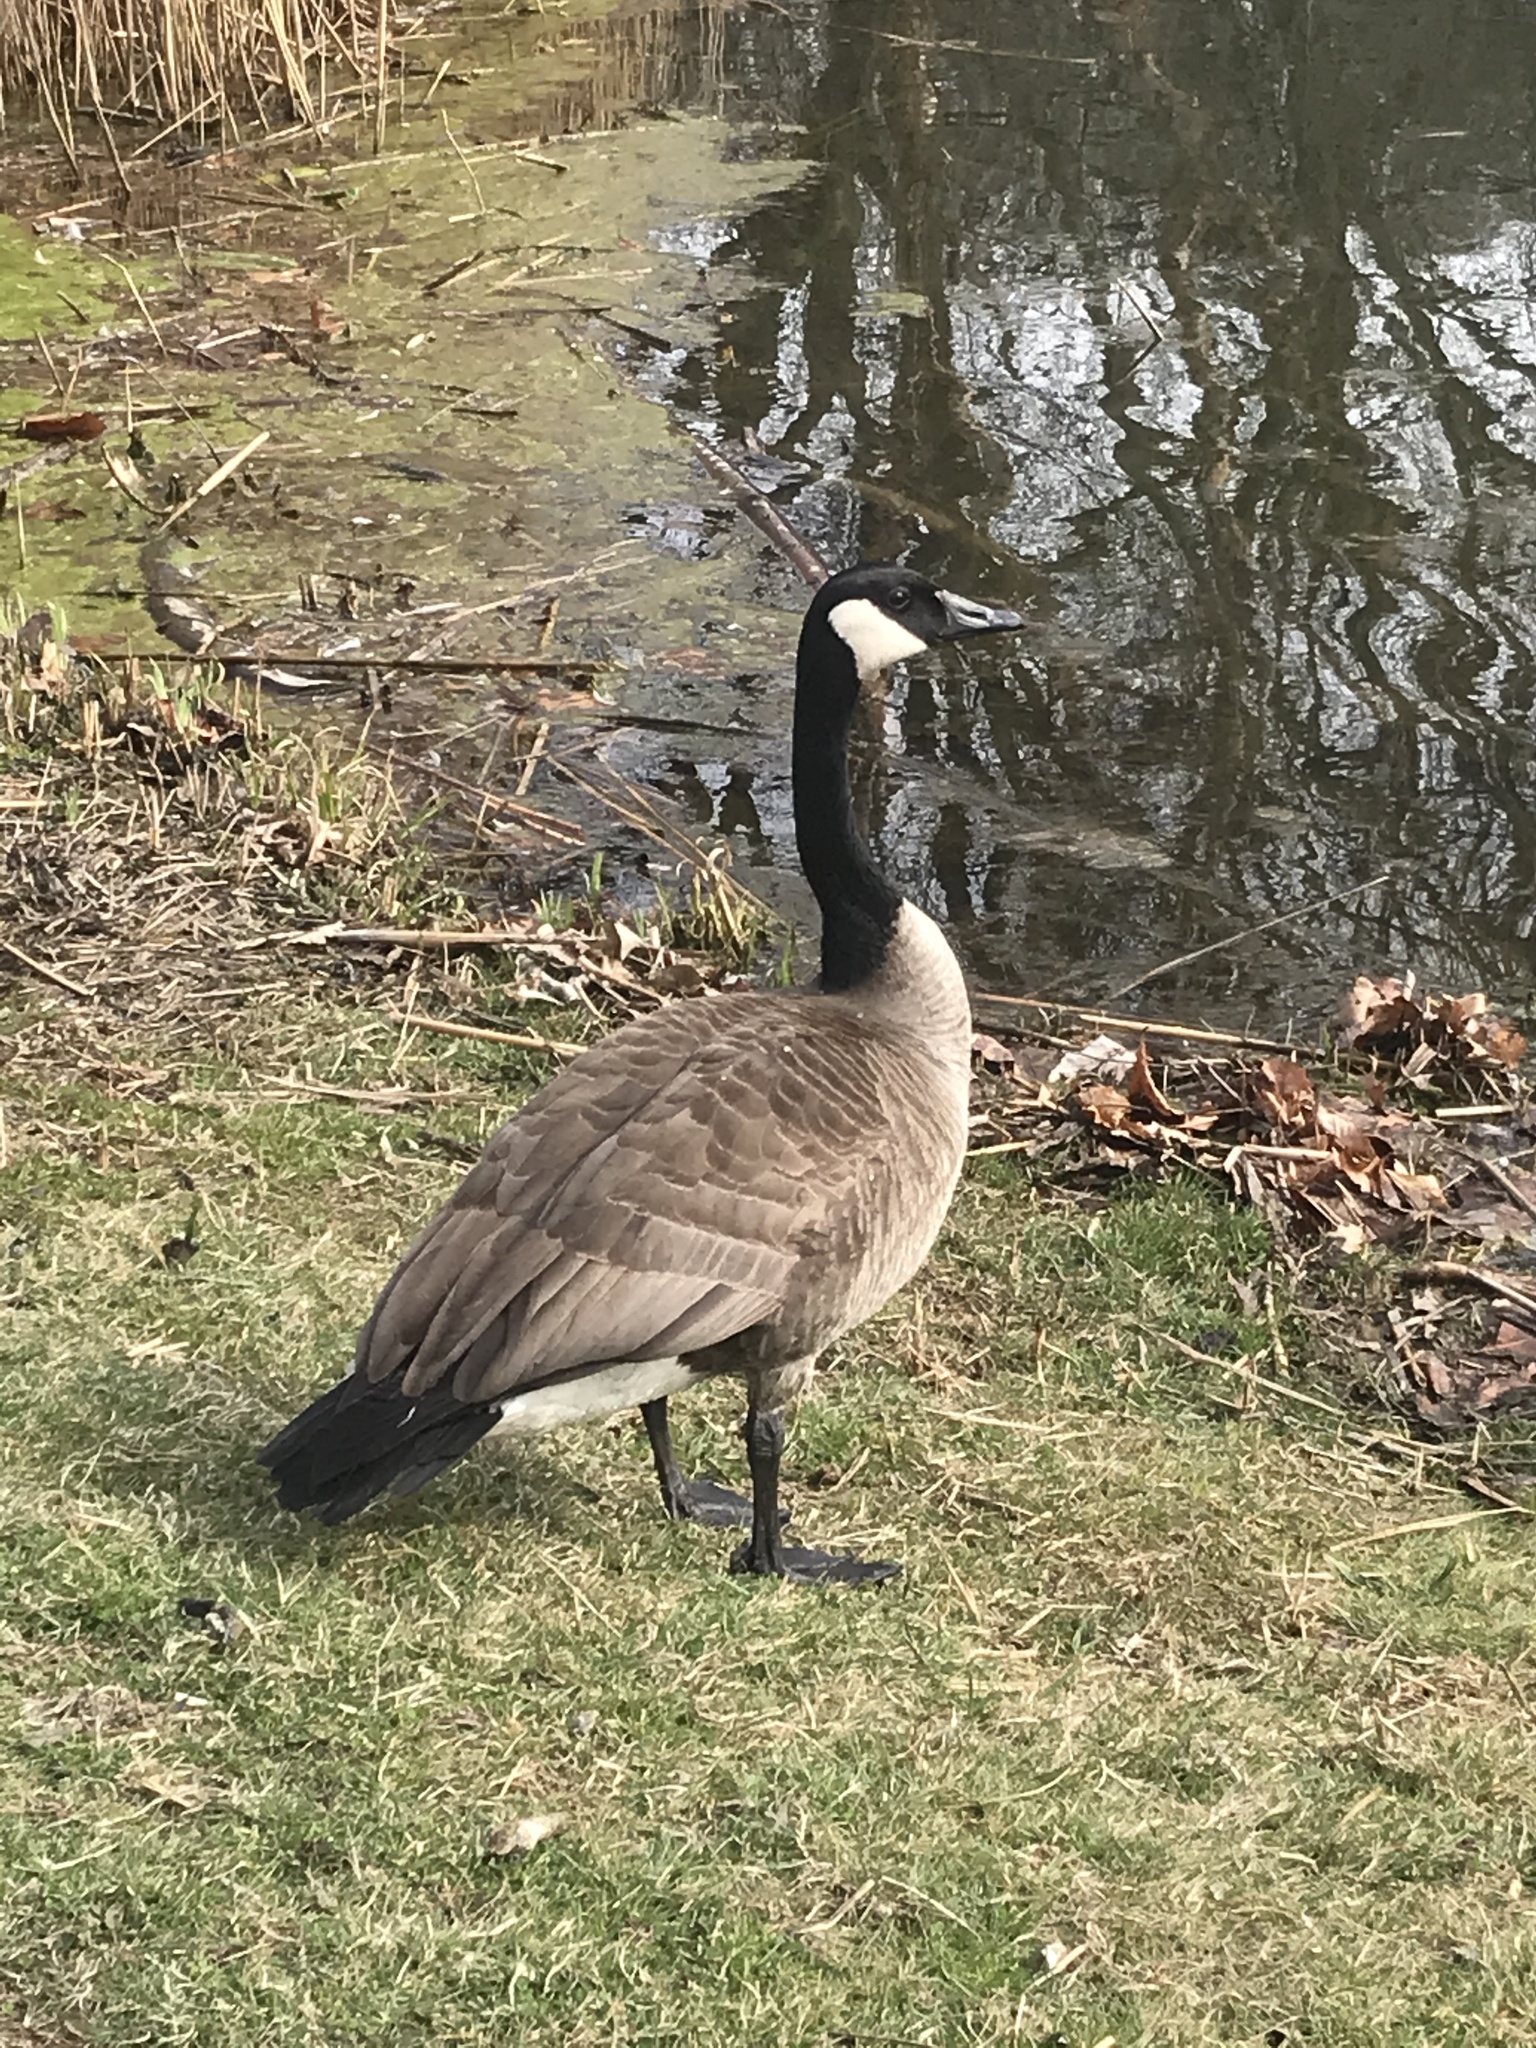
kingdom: Animalia
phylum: Chordata
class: Aves
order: Anseriformes
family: Anatidae
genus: Branta
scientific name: Branta canadensis
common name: Canada goose
